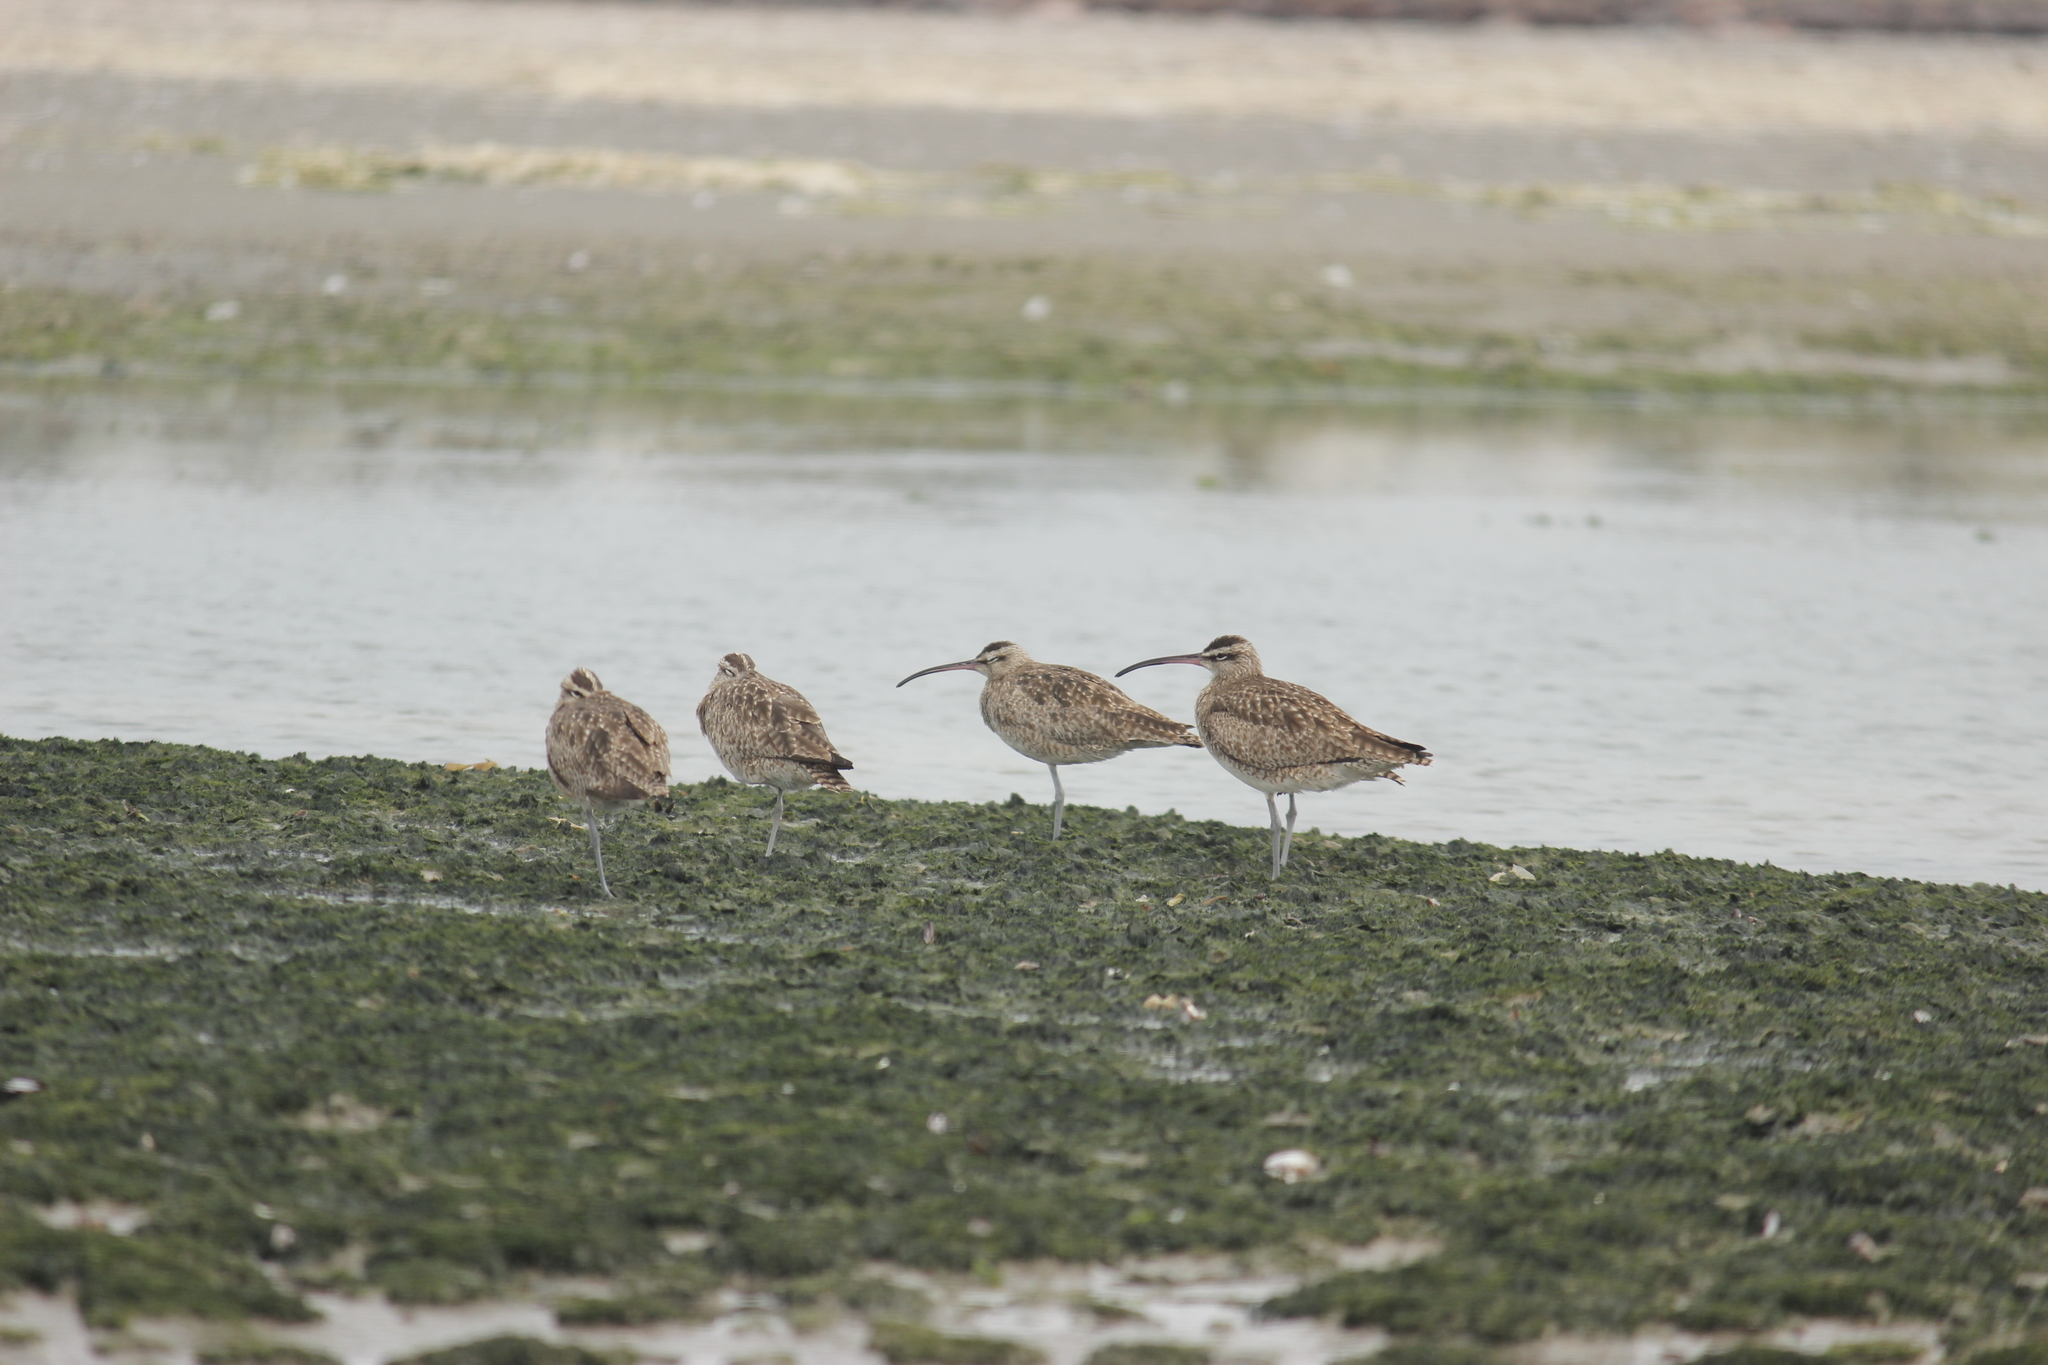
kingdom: Animalia
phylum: Chordata
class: Aves
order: Charadriiformes
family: Scolopacidae
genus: Numenius
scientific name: Numenius phaeopus
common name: Whimbrel
